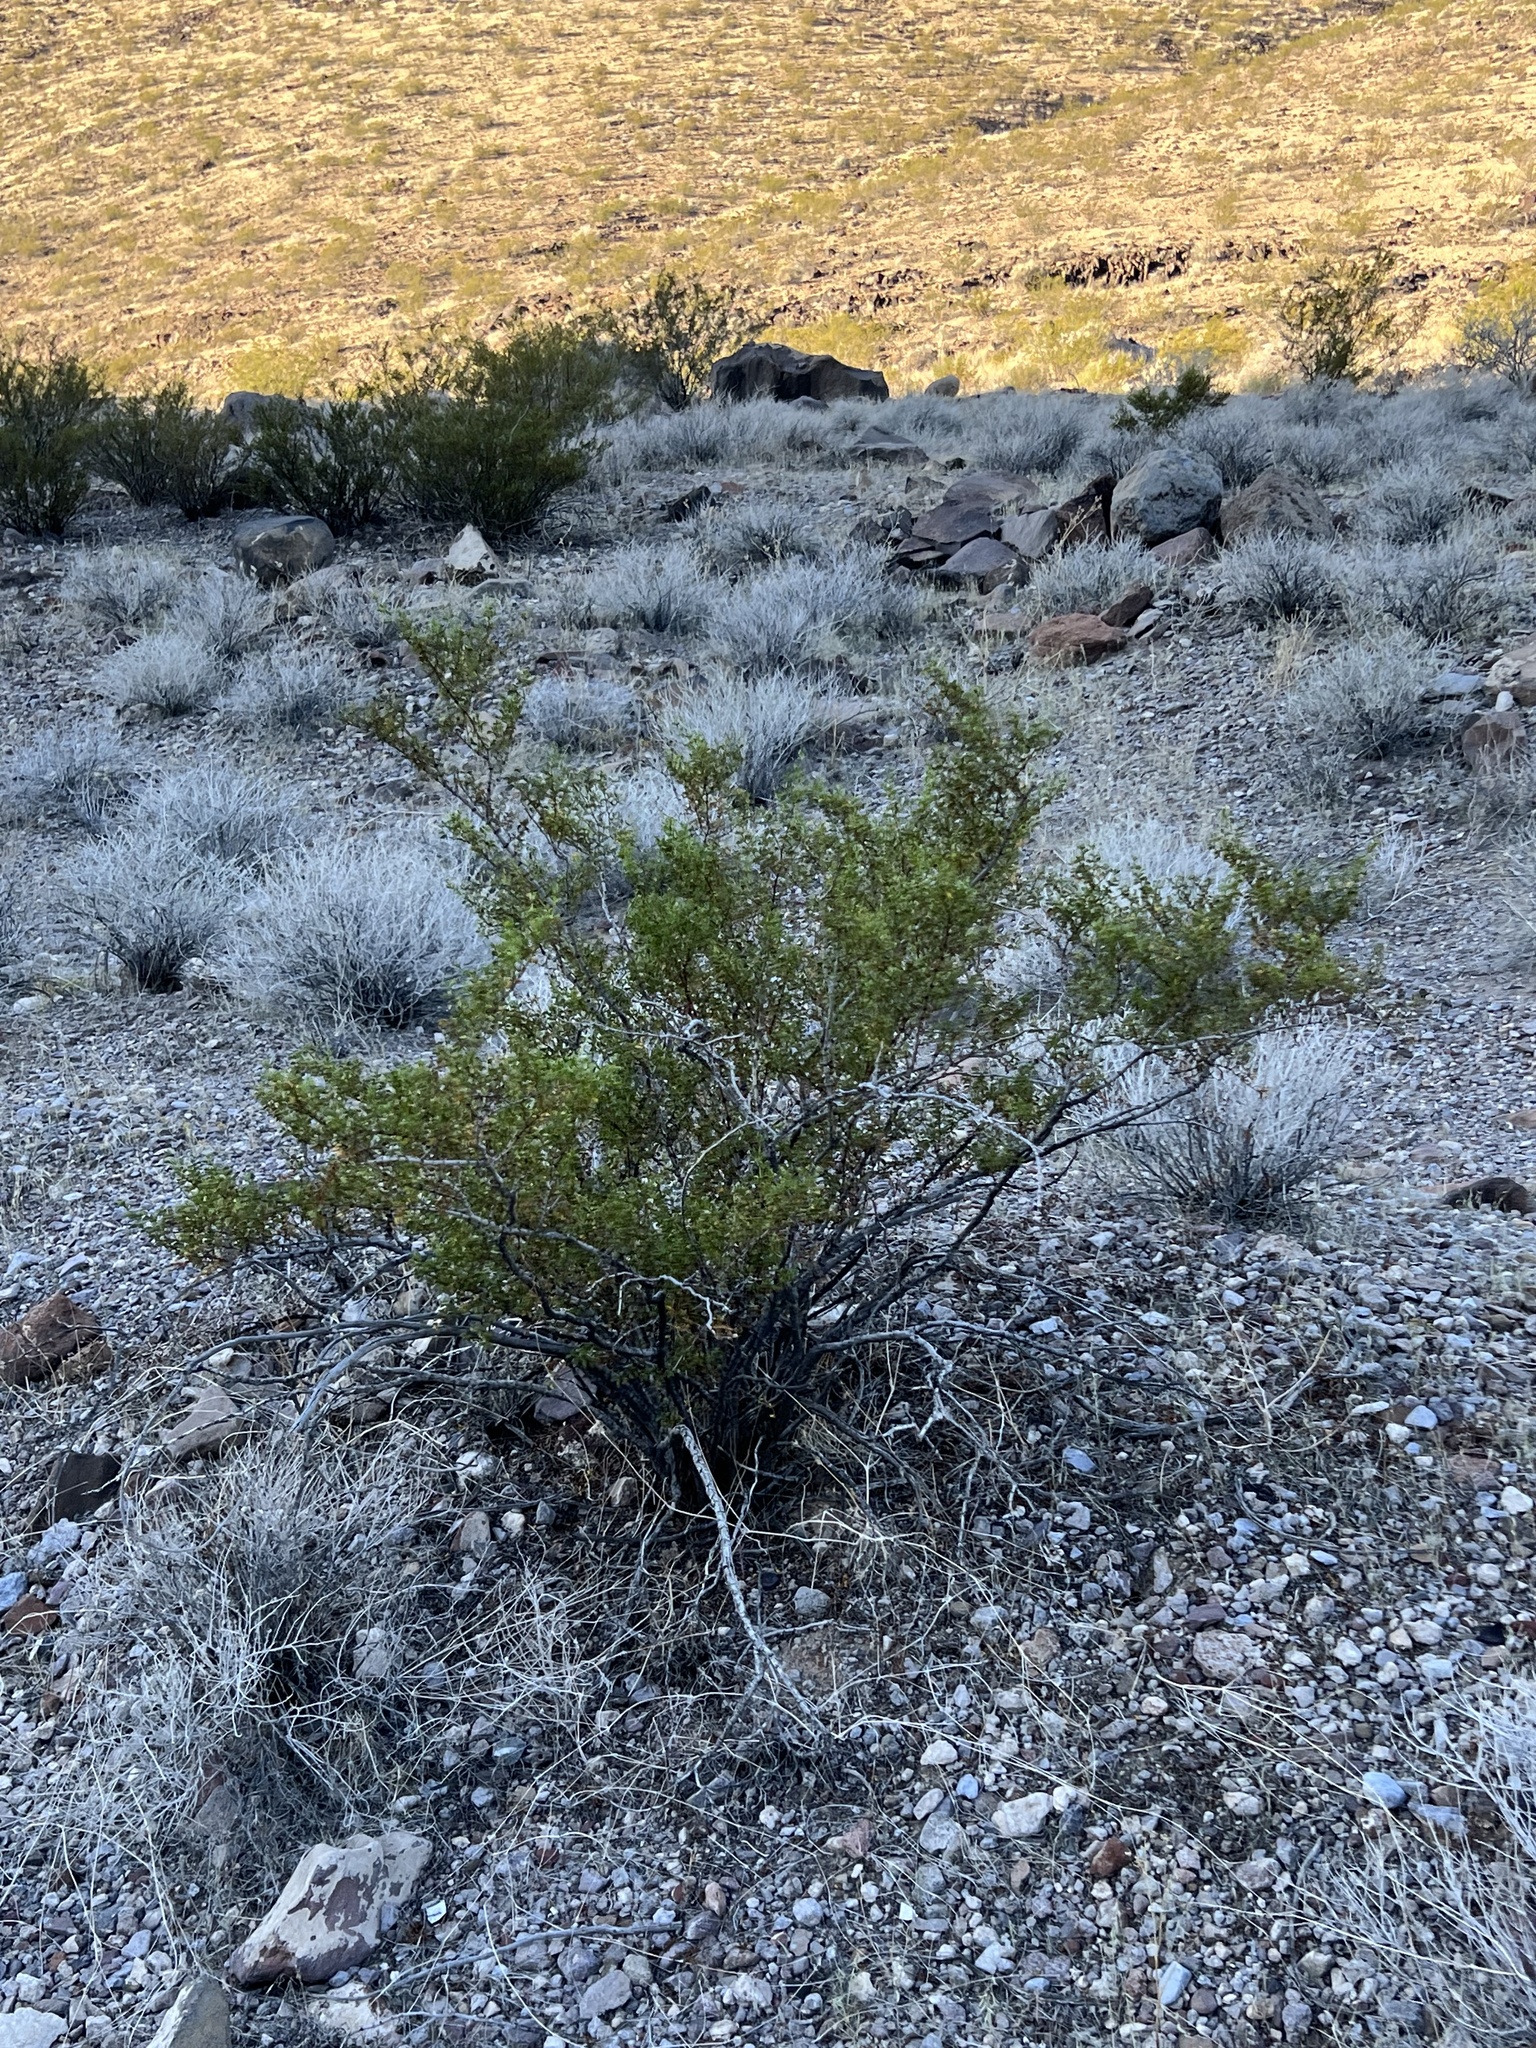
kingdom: Plantae
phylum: Tracheophyta
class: Magnoliopsida
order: Zygophyllales
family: Zygophyllaceae
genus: Larrea
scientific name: Larrea tridentata
